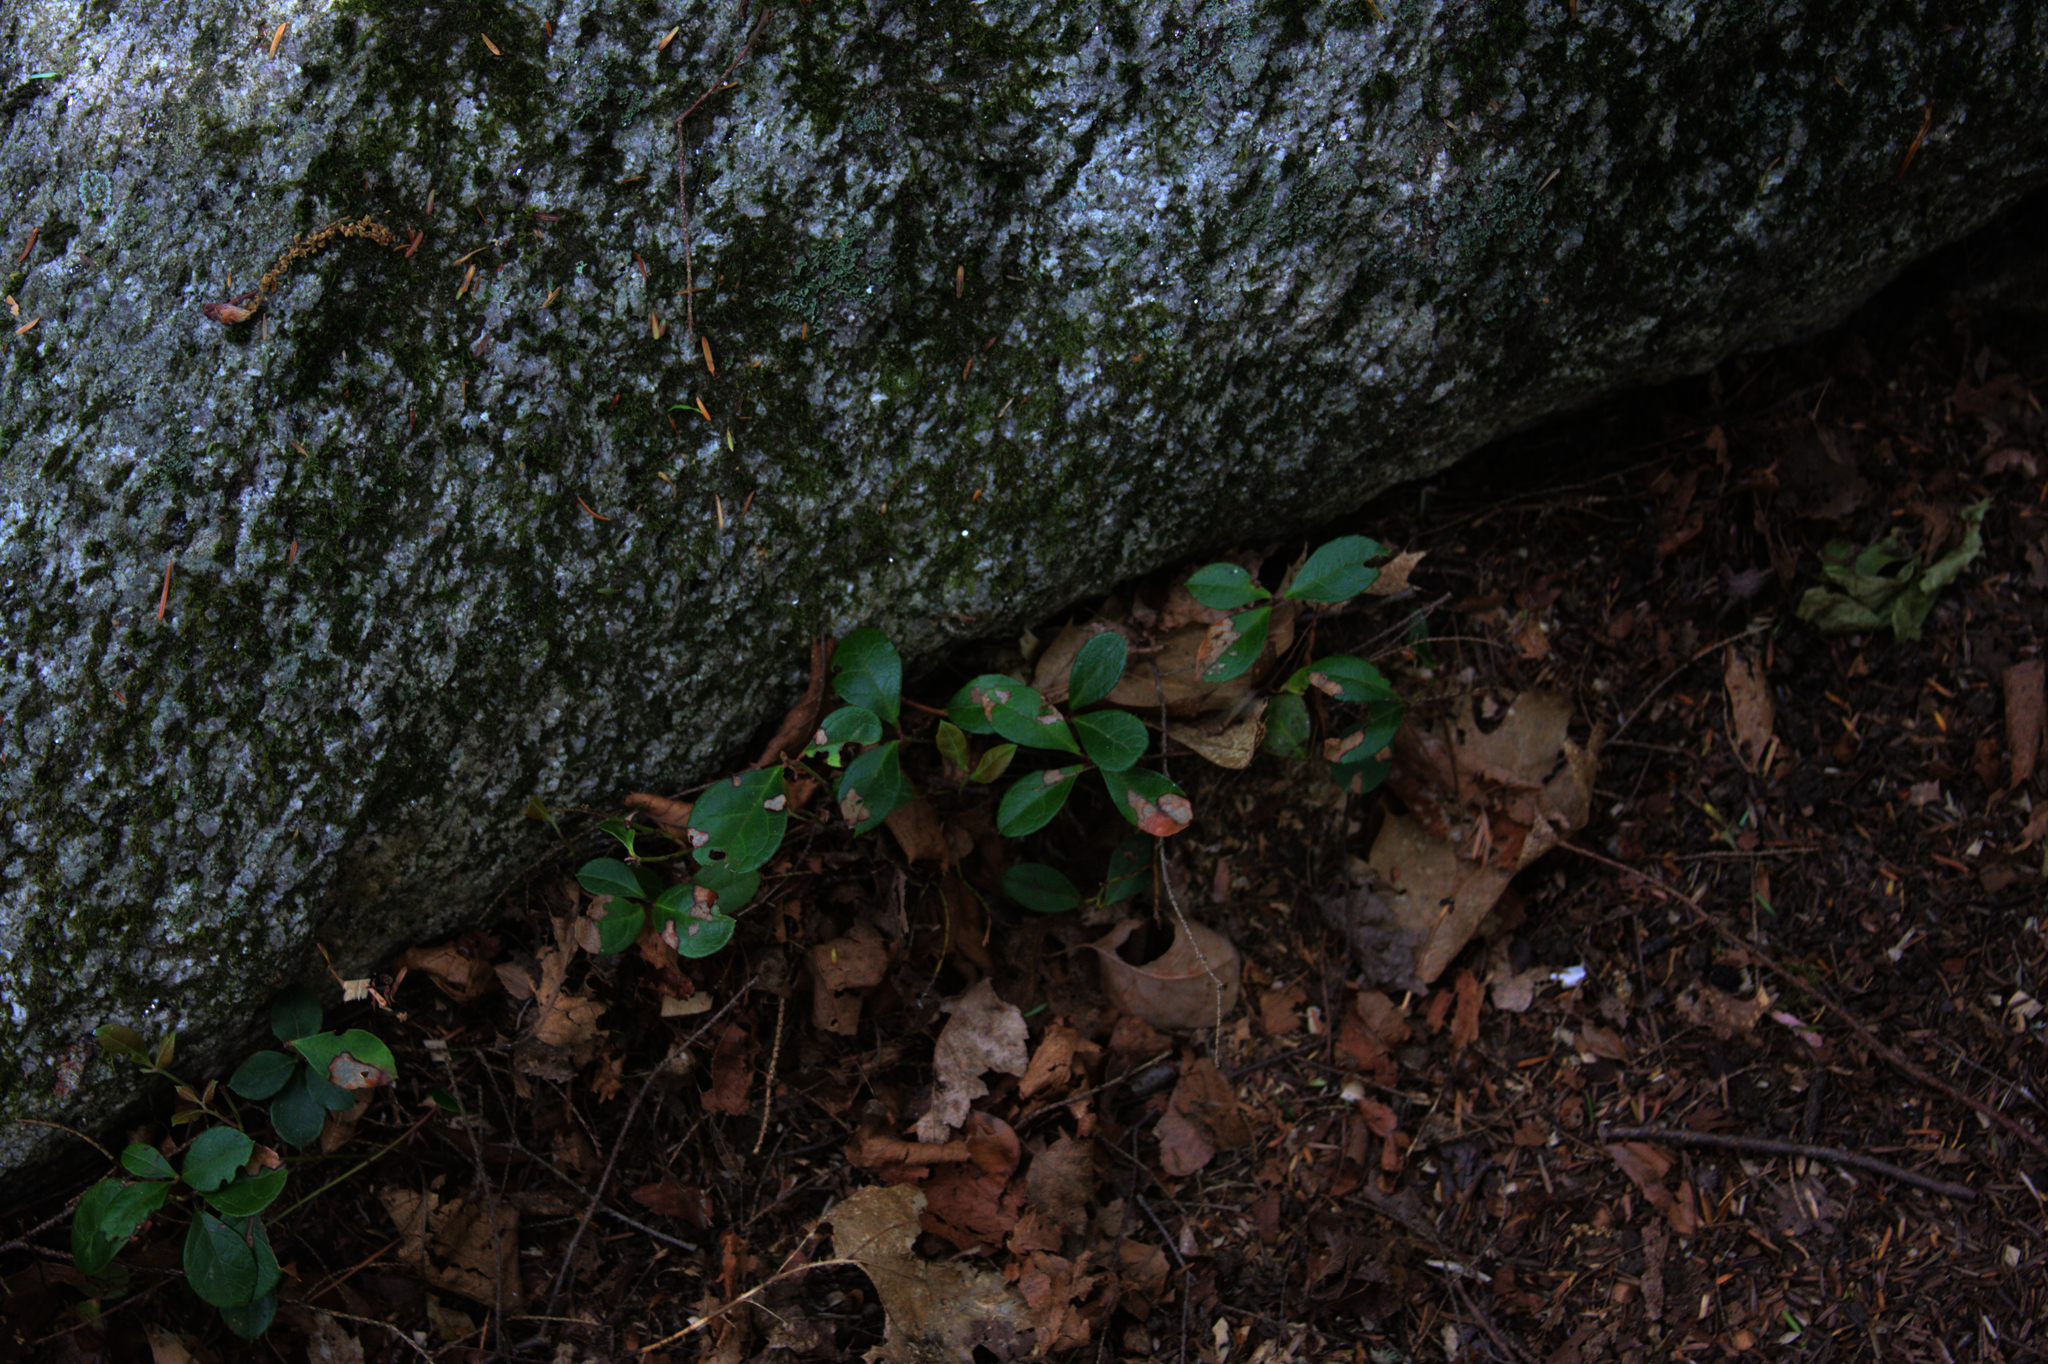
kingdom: Plantae
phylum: Tracheophyta
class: Magnoliopsida
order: Ericales
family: Ericaceae
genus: Gaultheria
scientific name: Gaultheria procumbens
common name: Checkerberry
